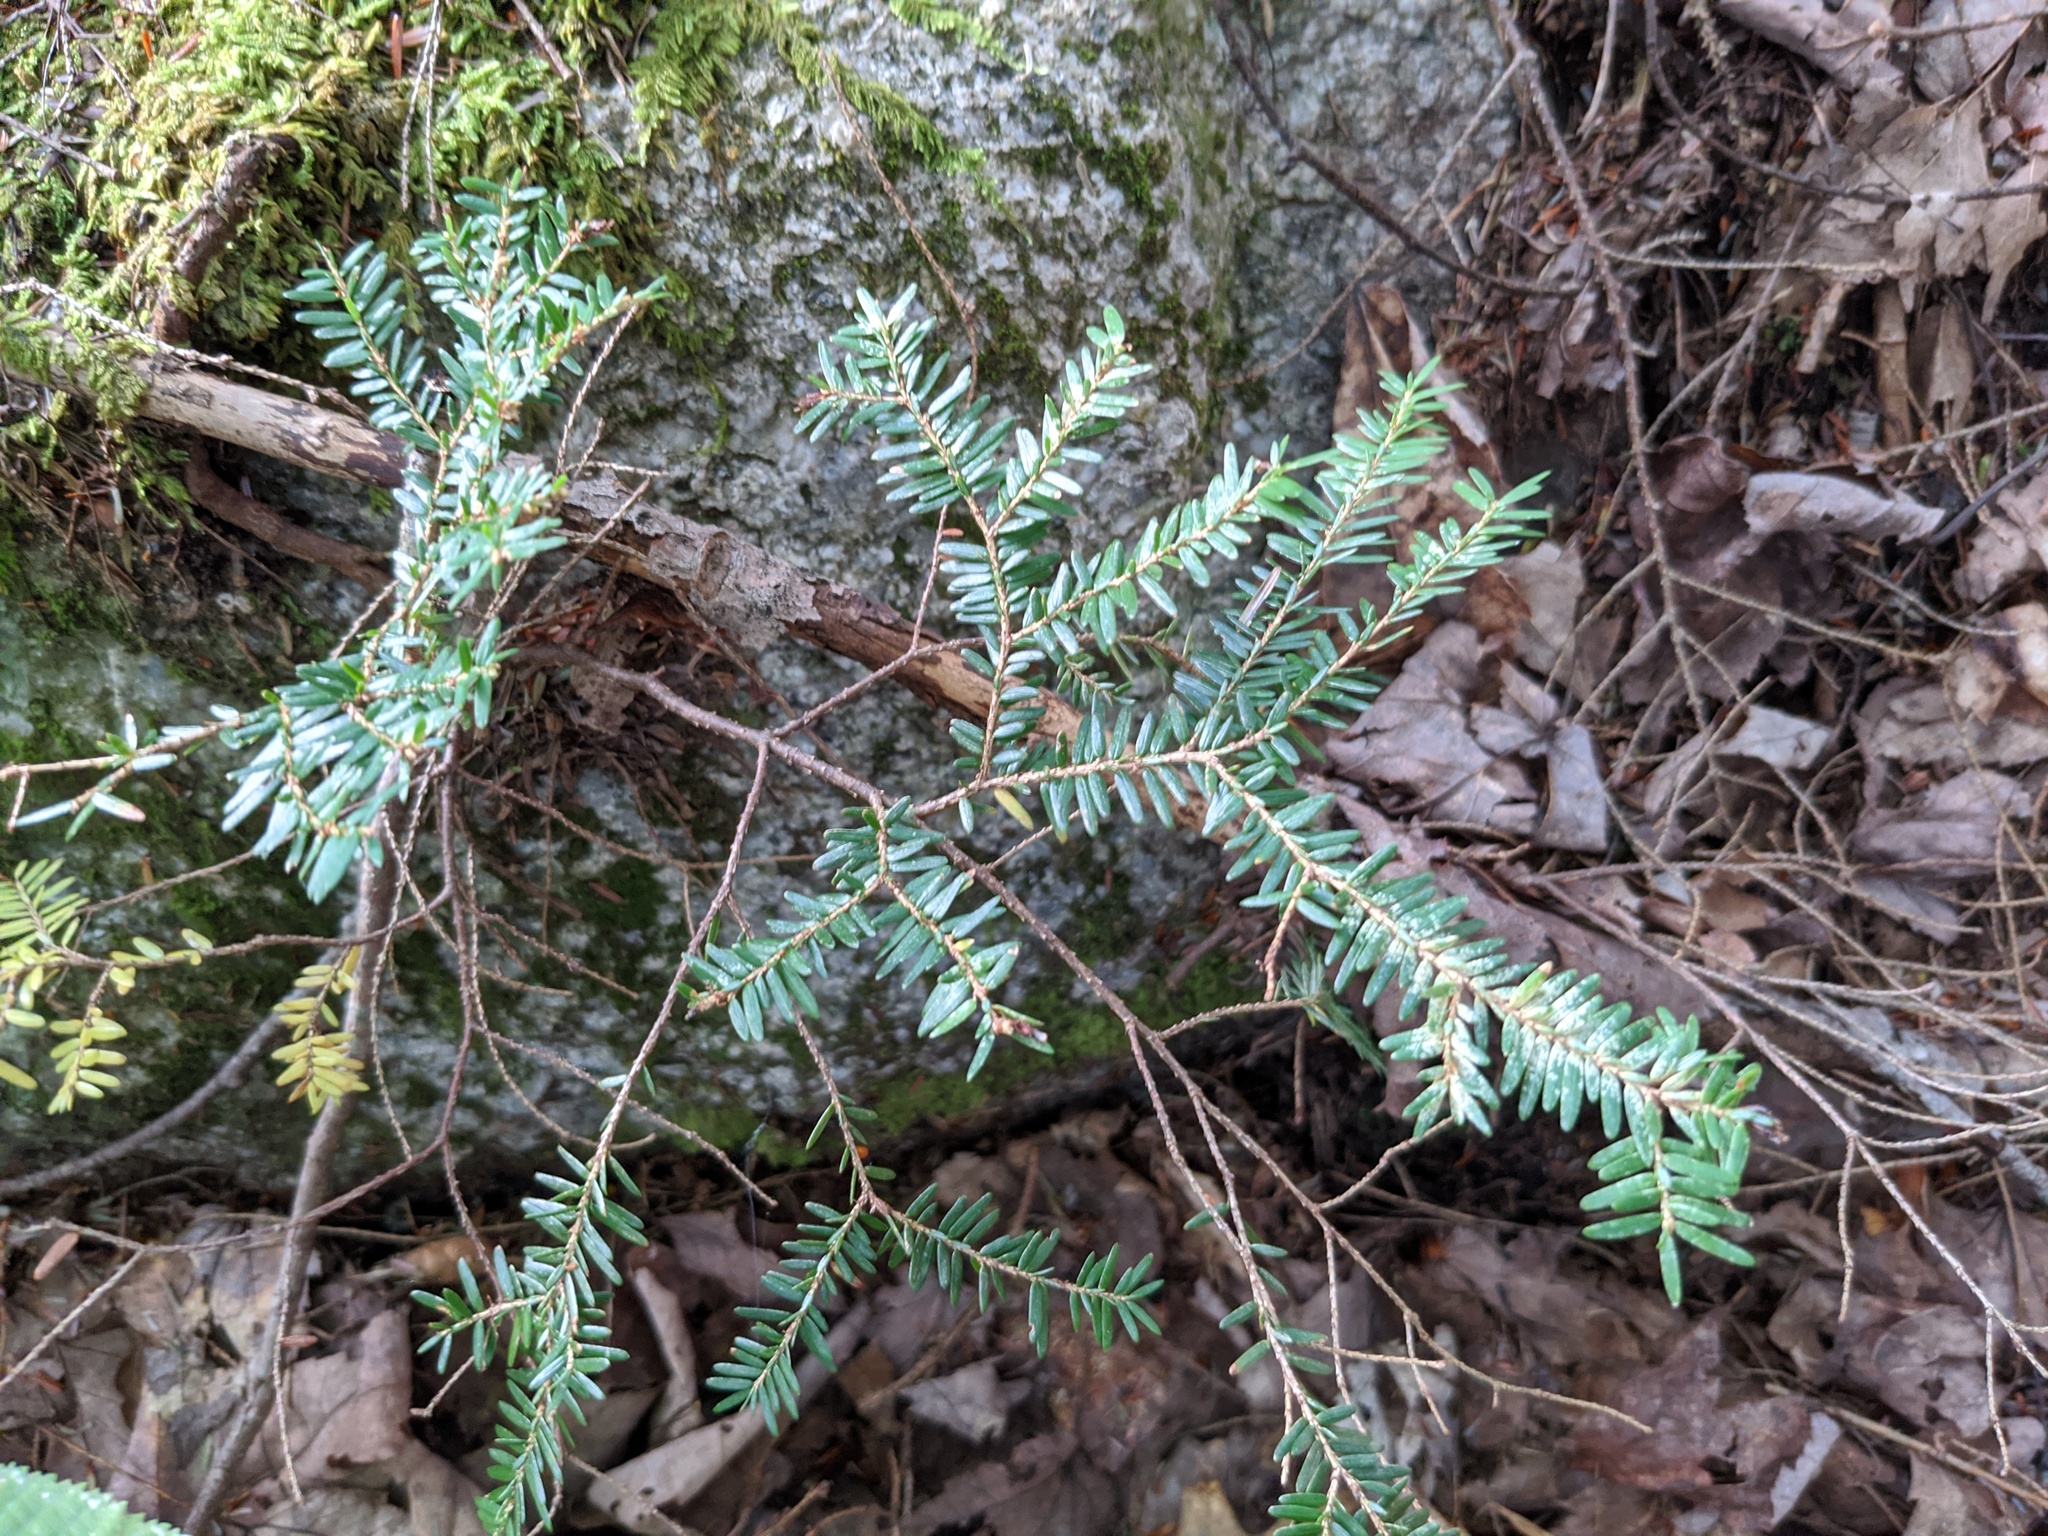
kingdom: Plantae
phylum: Tracheophyta
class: Pinopsida
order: Pinales
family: Pinaceae
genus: Tsuga
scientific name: Tsuga canadensis
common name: Eastern hemlock
